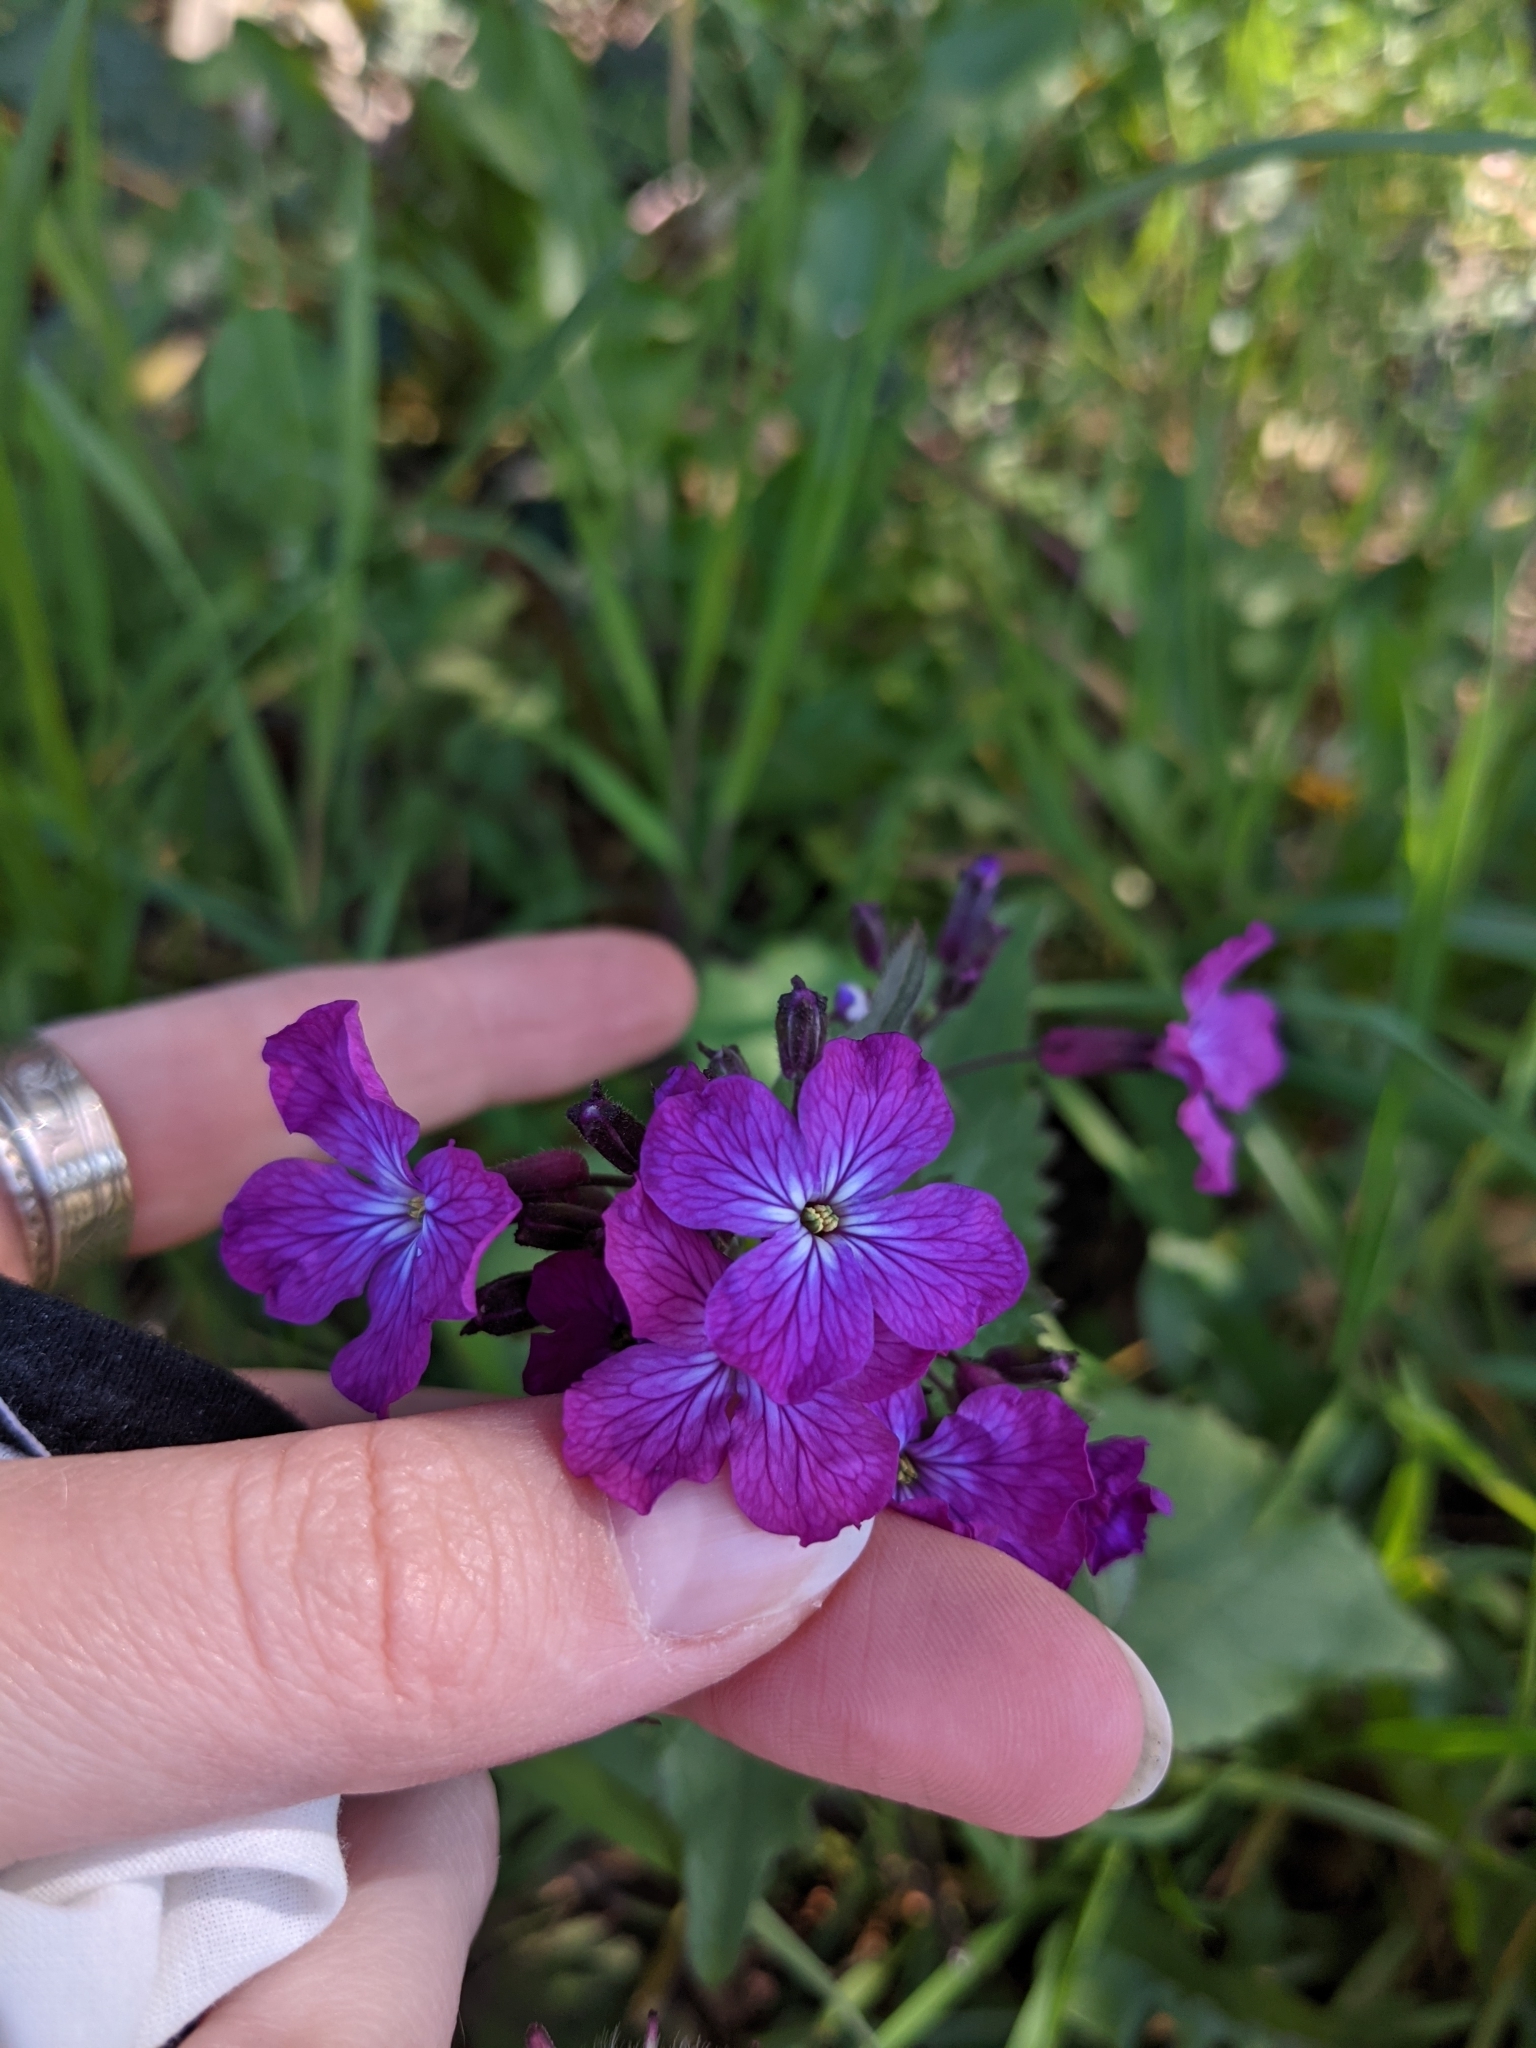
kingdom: Plantae
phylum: Tracheophyta
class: Magnoliopsida
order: Brassicales
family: Brassicaceae
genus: Lunaria
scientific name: Lunaria annua
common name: Honesty
